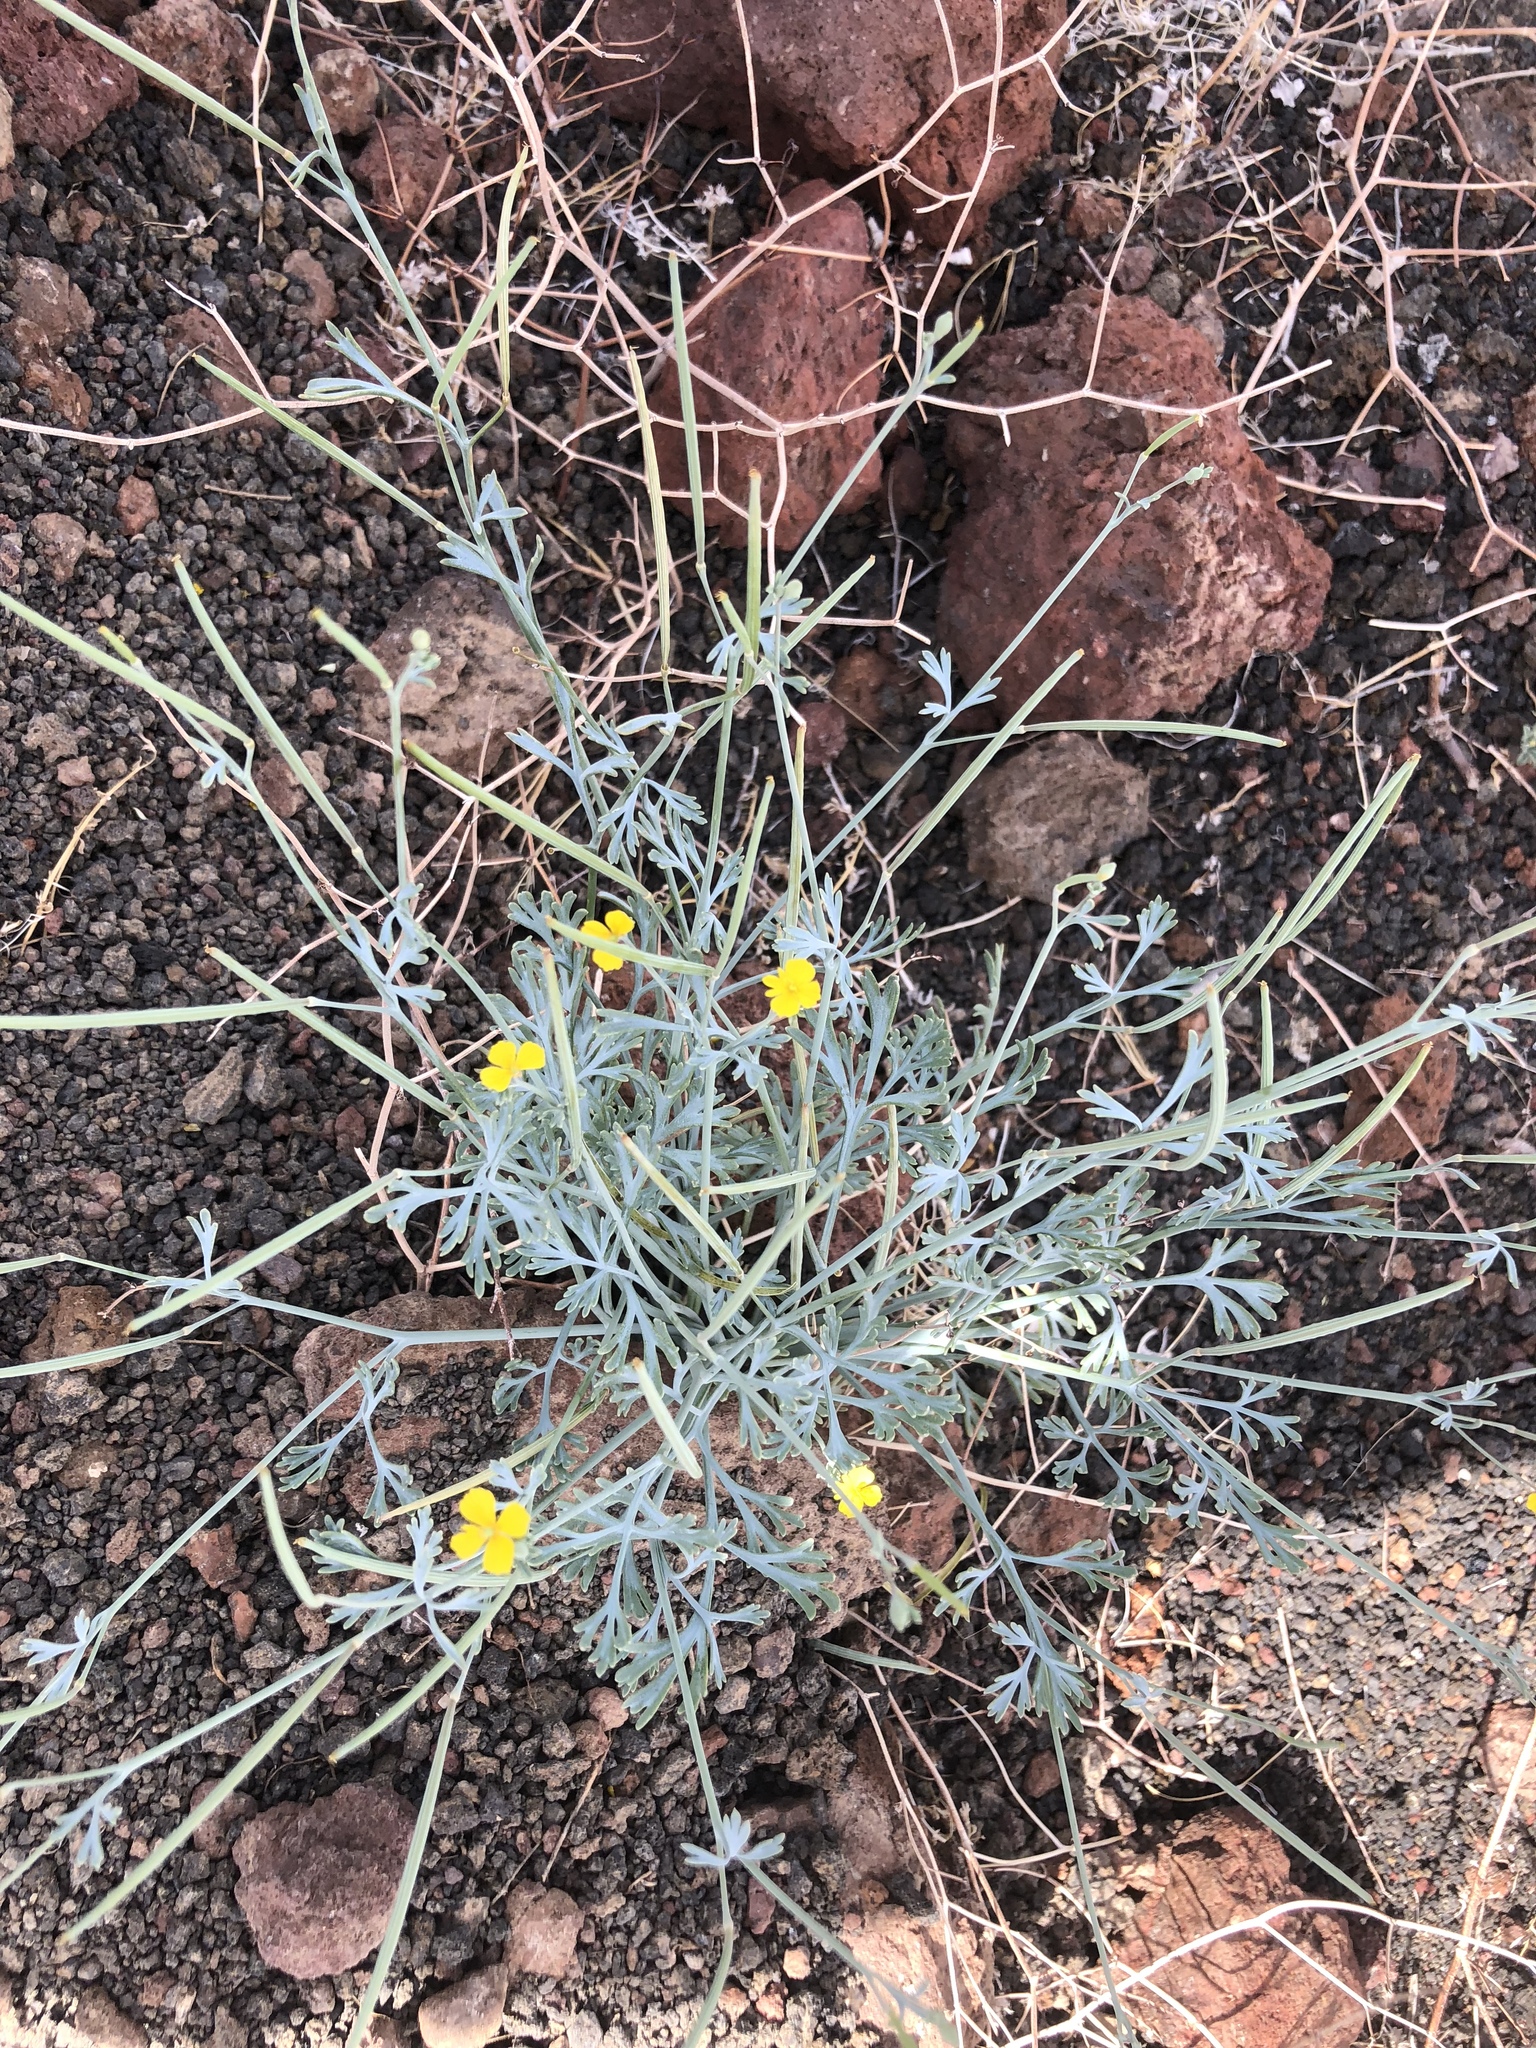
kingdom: Plantae
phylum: Tracheophyta
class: Magnoliopsida
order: Ranunculales
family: Papaveraceae
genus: Eschscholzia
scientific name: Eschscholzia minutiflora
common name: Small-flower california-poppy
